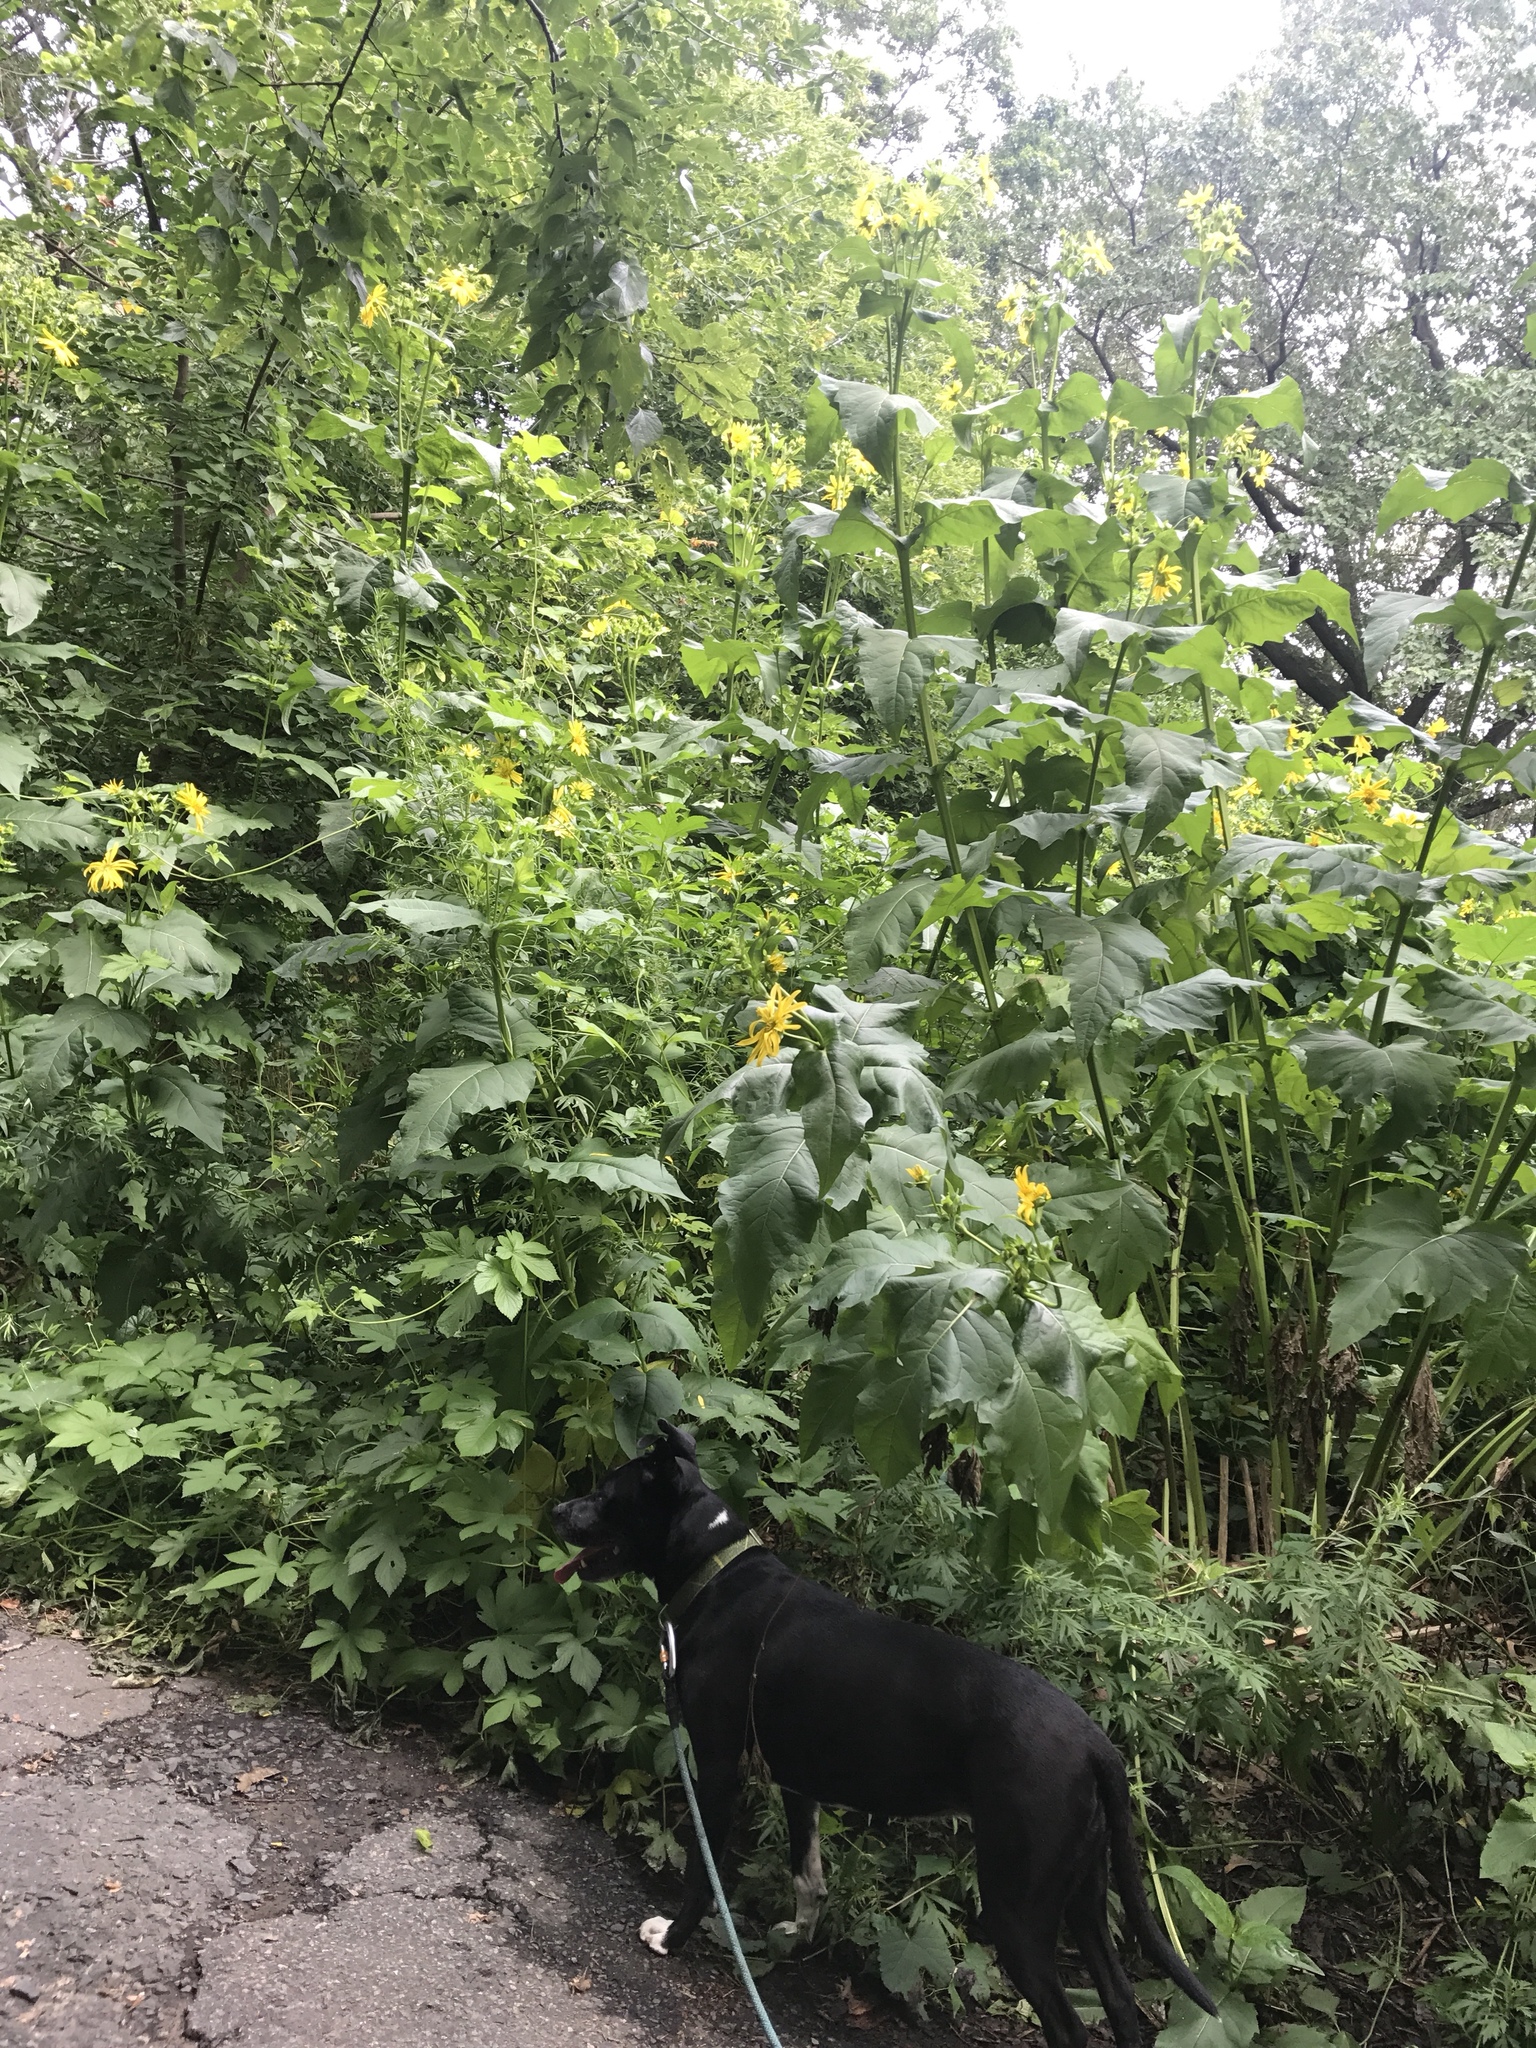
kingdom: Plantae
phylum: Tracheophyta
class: Magnoliopsida
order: Asterales
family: Asteraceae
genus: Silphium
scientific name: Silphium perfoliatum
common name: Cup-plant
